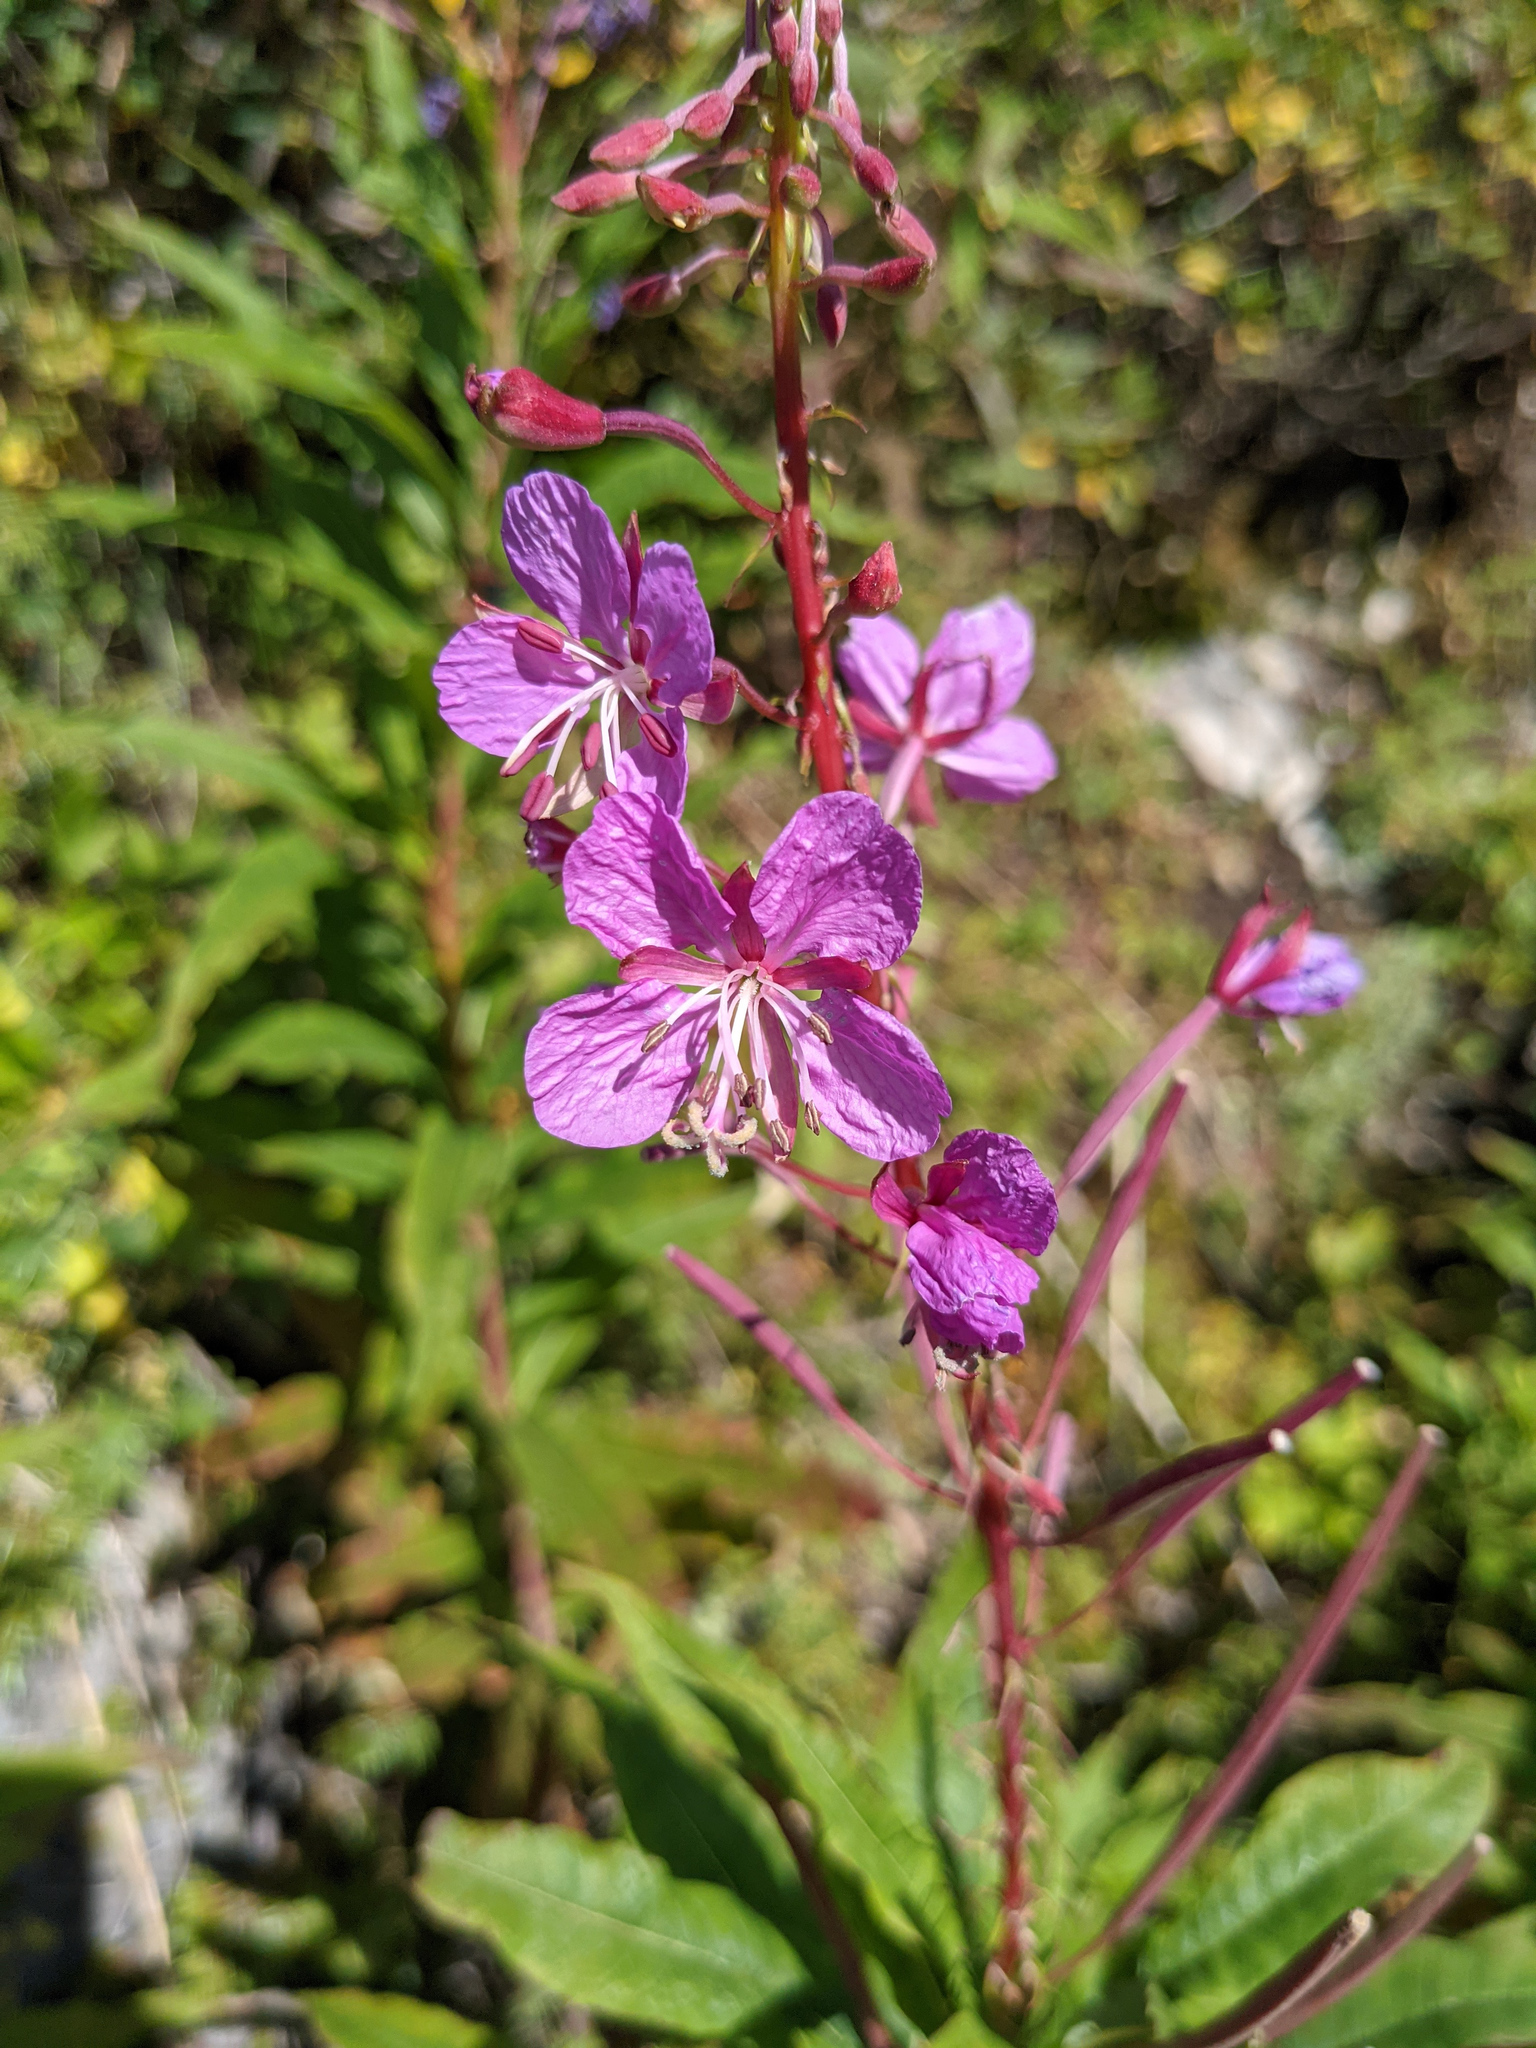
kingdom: Plantae
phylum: Tracheophyta
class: Magnoliopsida
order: Myrtales
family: Onagraceae
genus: Chamaenerion
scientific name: Chamaenerion angustifolium
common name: Fireweed
